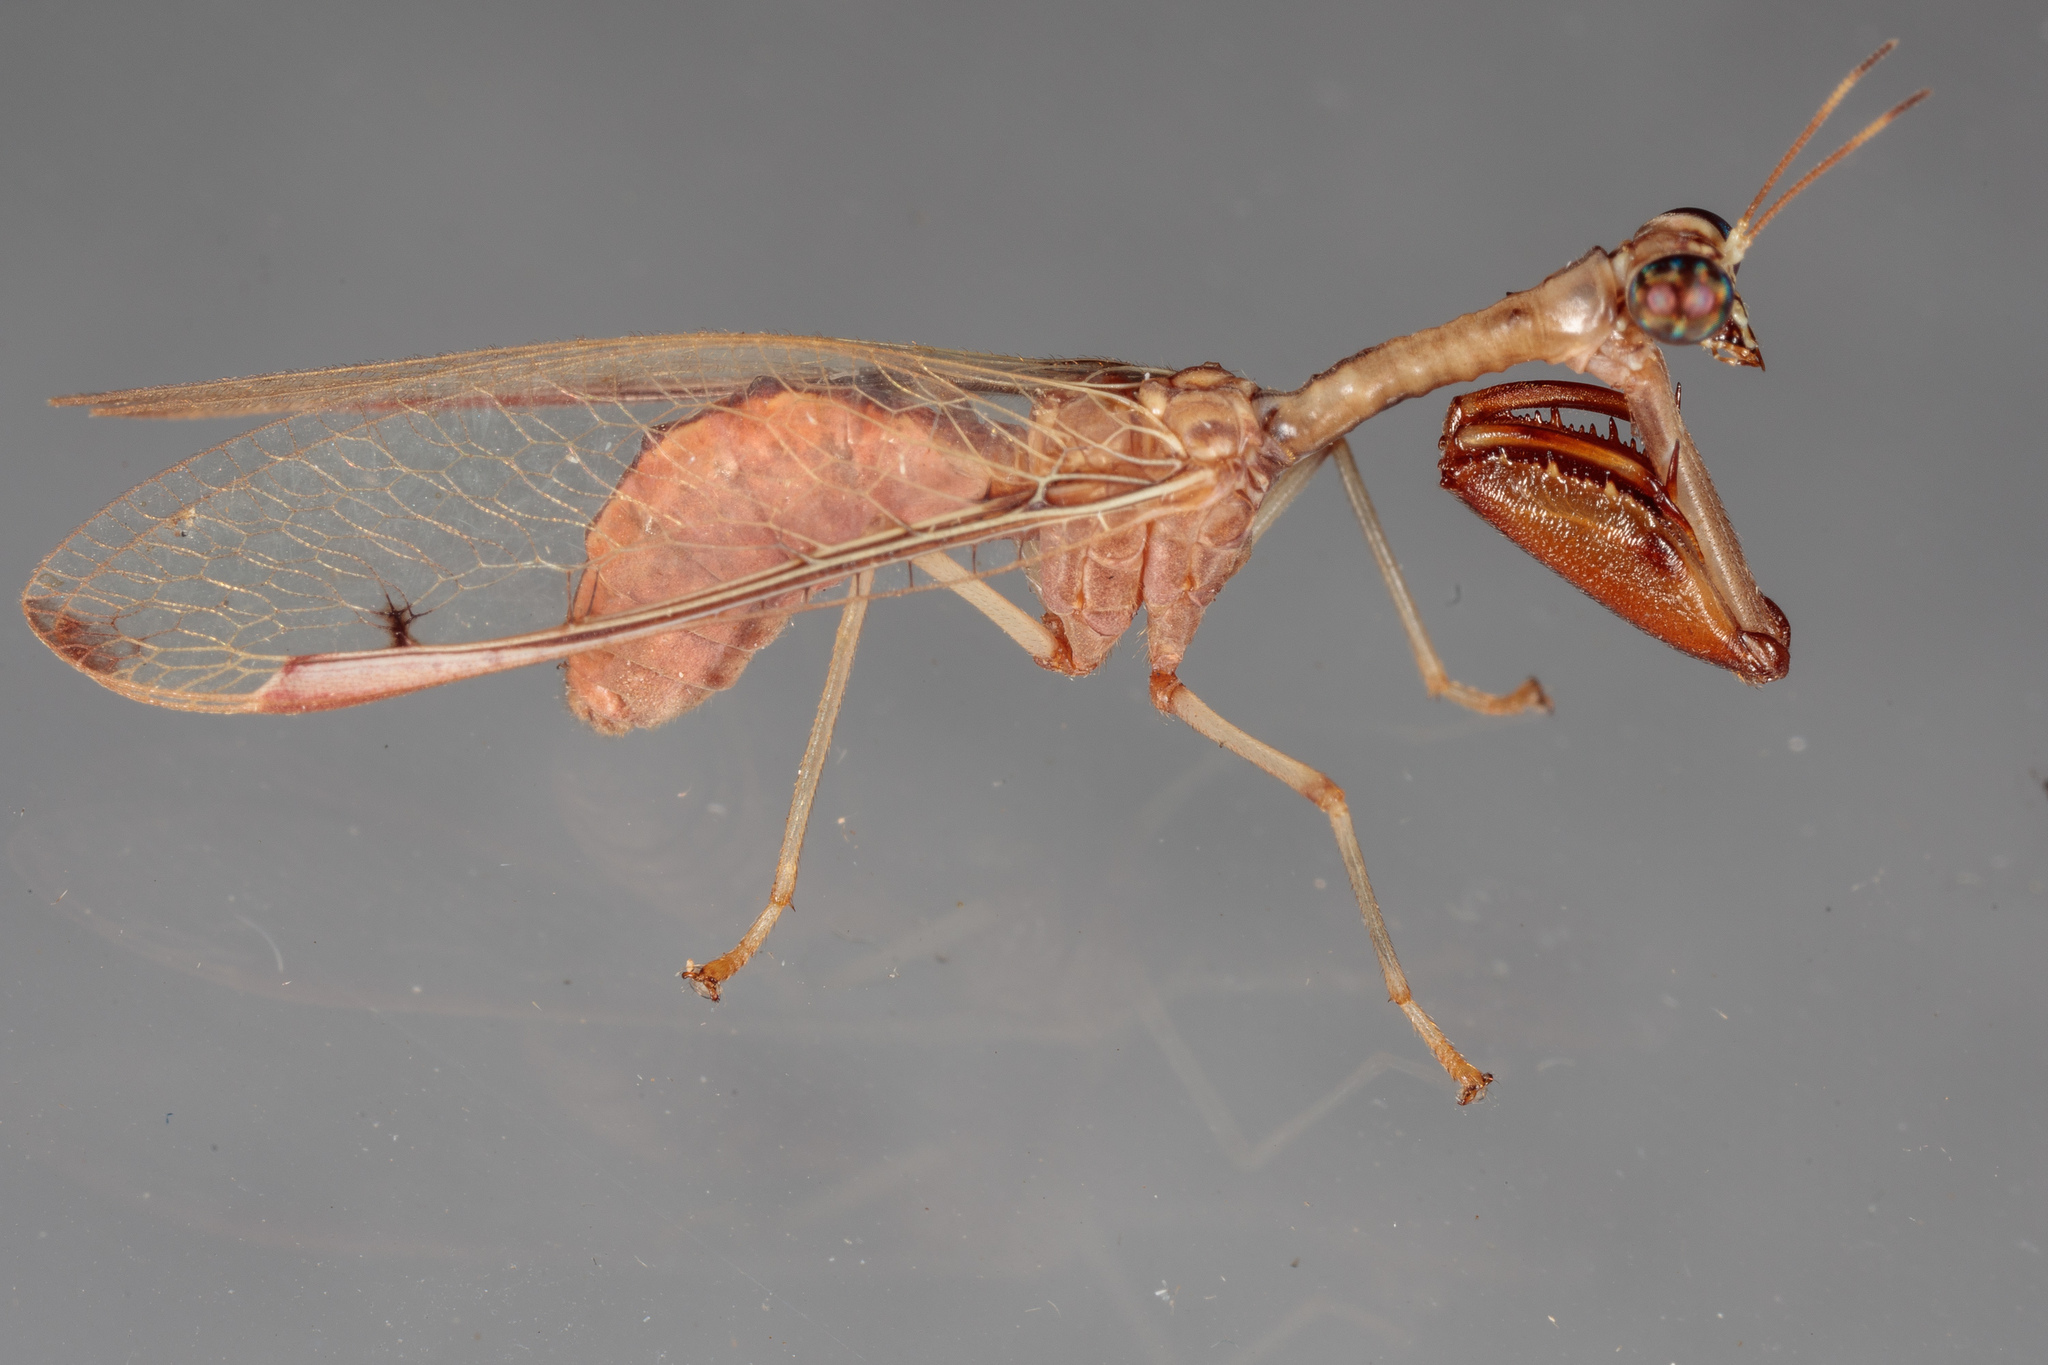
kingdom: Animalia
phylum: Arthropoda
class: Insecta
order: Neuroptera
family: Mantispidae
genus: Dicromantispa
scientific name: Dicromantispa interrupta
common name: Four-spotted mantidfly
